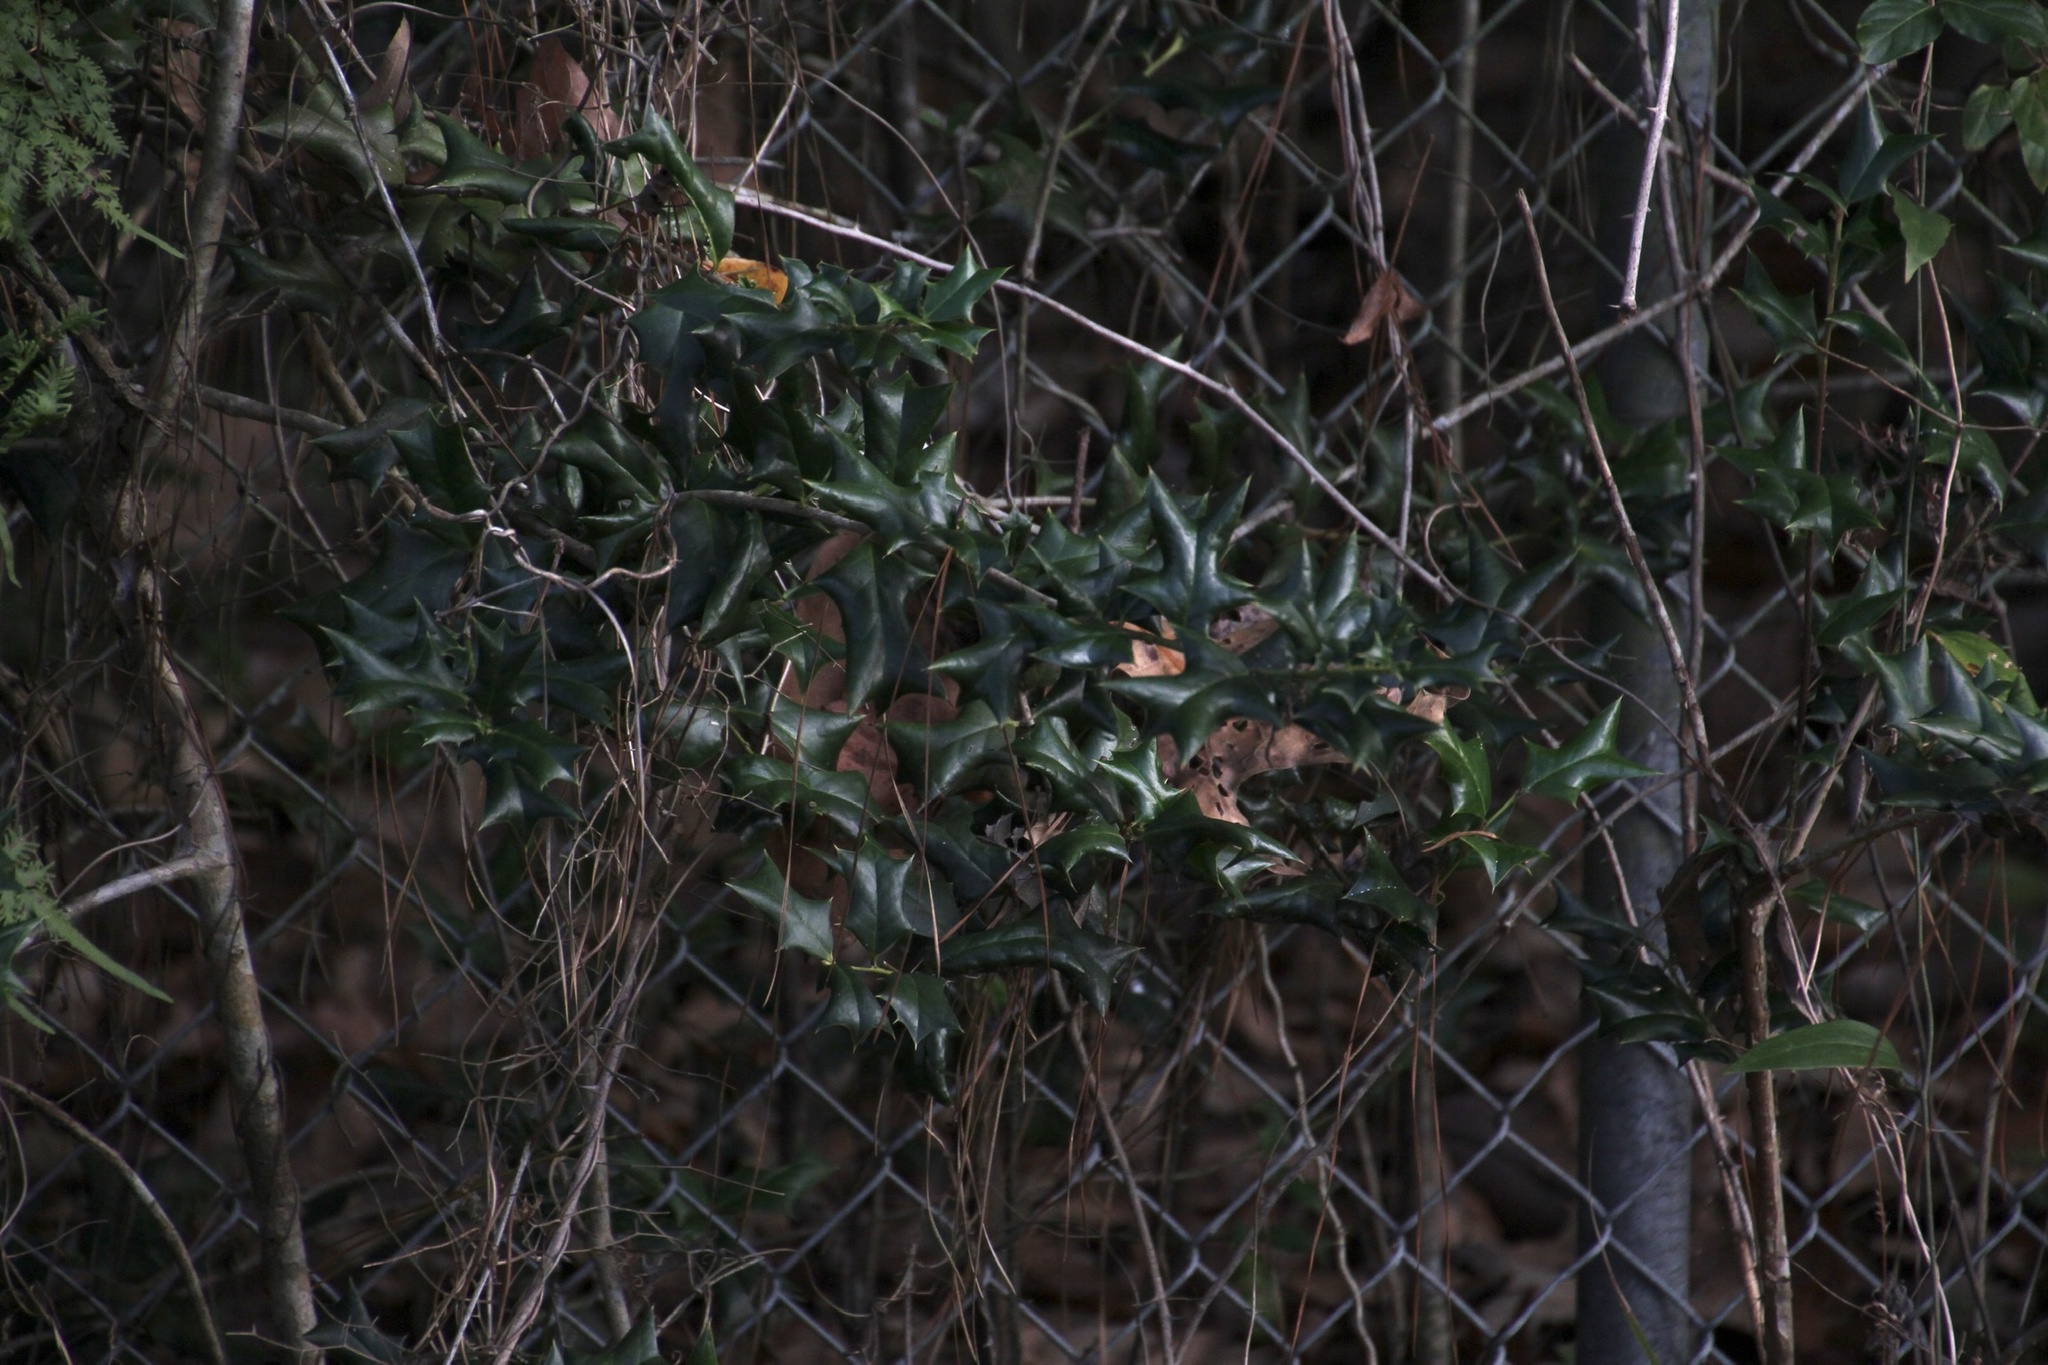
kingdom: Plantae
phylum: Tracheophyta
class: Magnoliopsida
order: Aquifoliales
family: Aquifoliaceae
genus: Ilex
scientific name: Ilex cornuta
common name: Chinese holly
